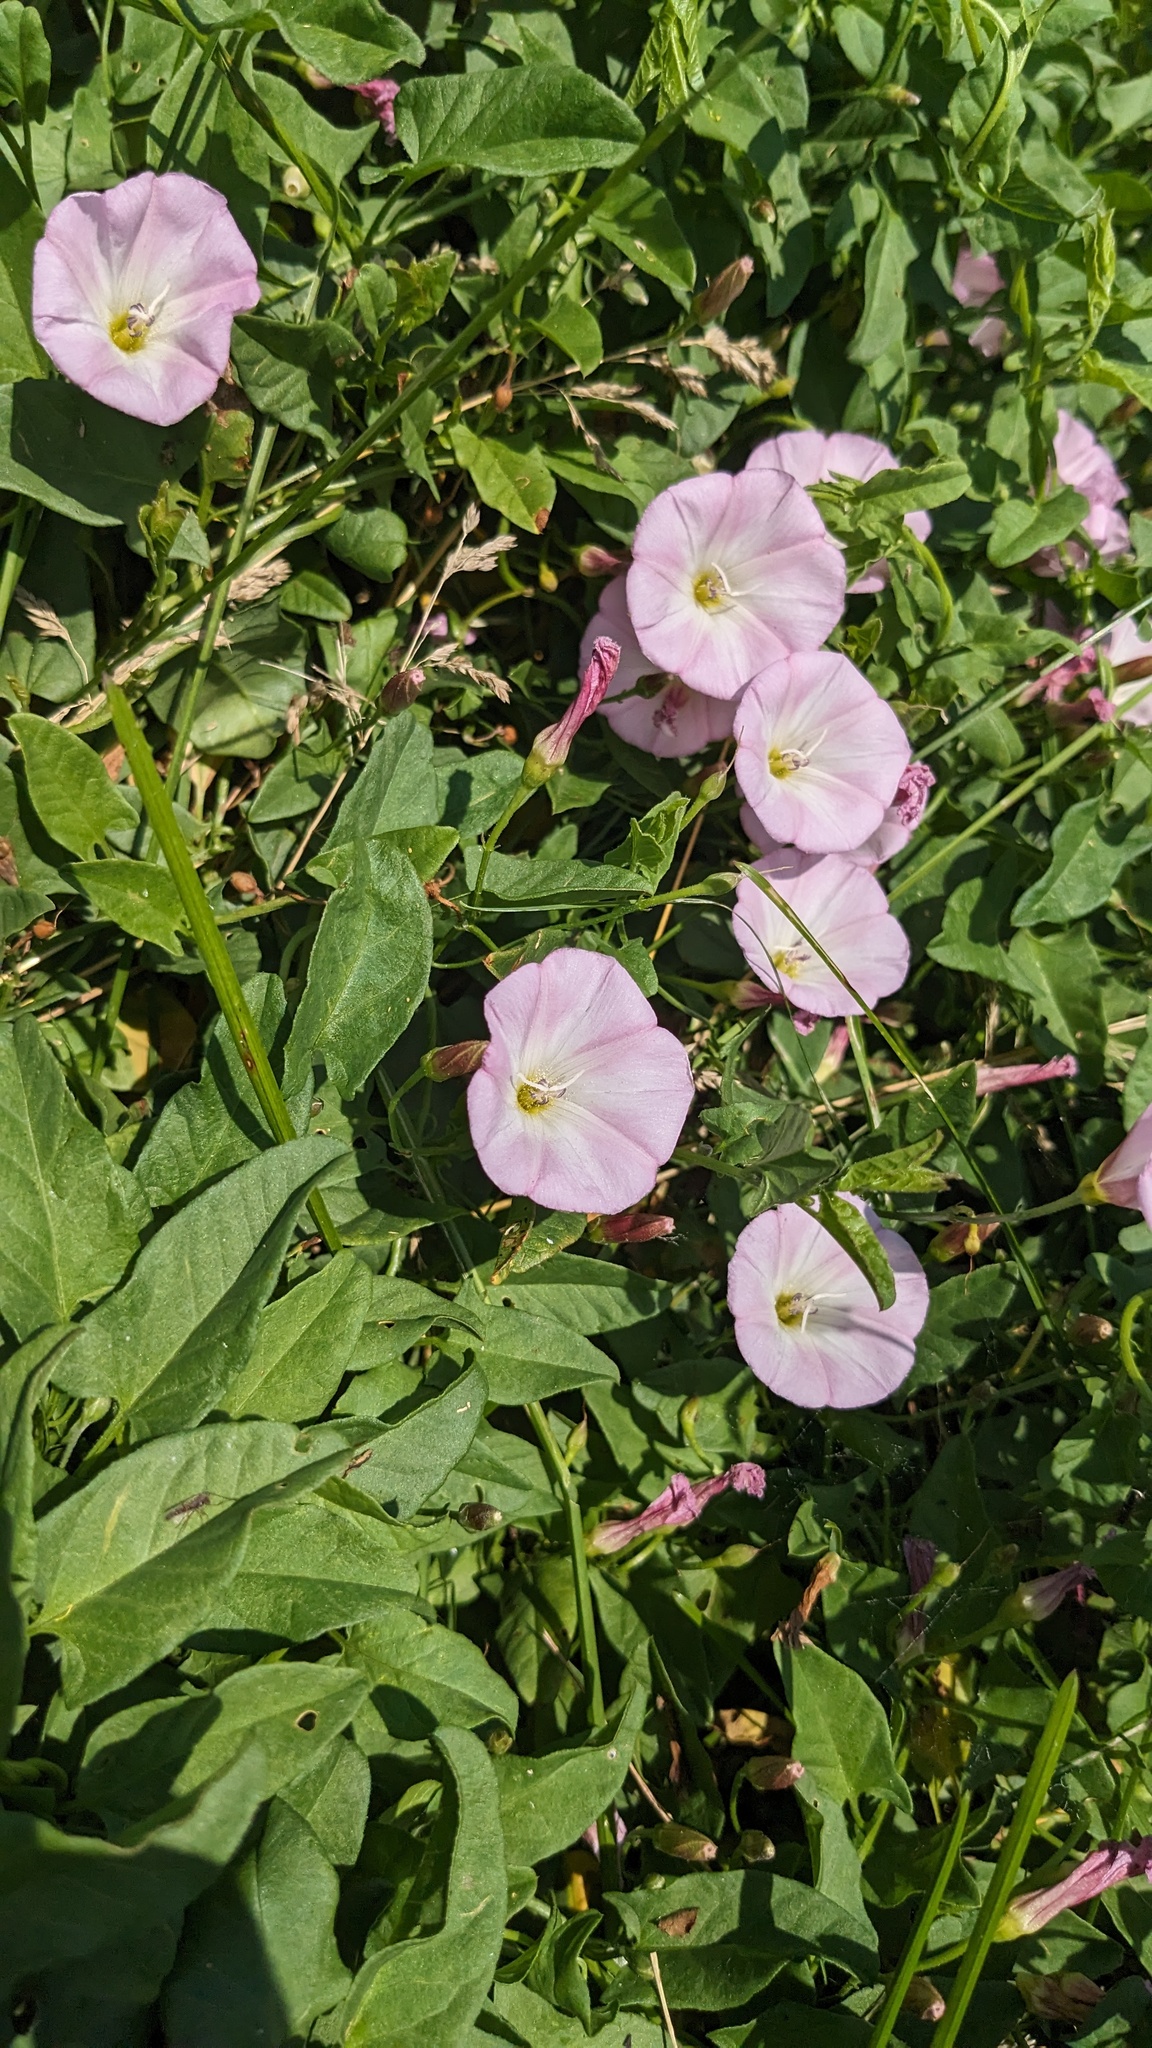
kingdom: Plantae
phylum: Tracheophyta
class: Magnoliopsida
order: Solanales
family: Convolvulaceae
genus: Convolvulus
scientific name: Convolvulus arvensis
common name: Field bindweed
